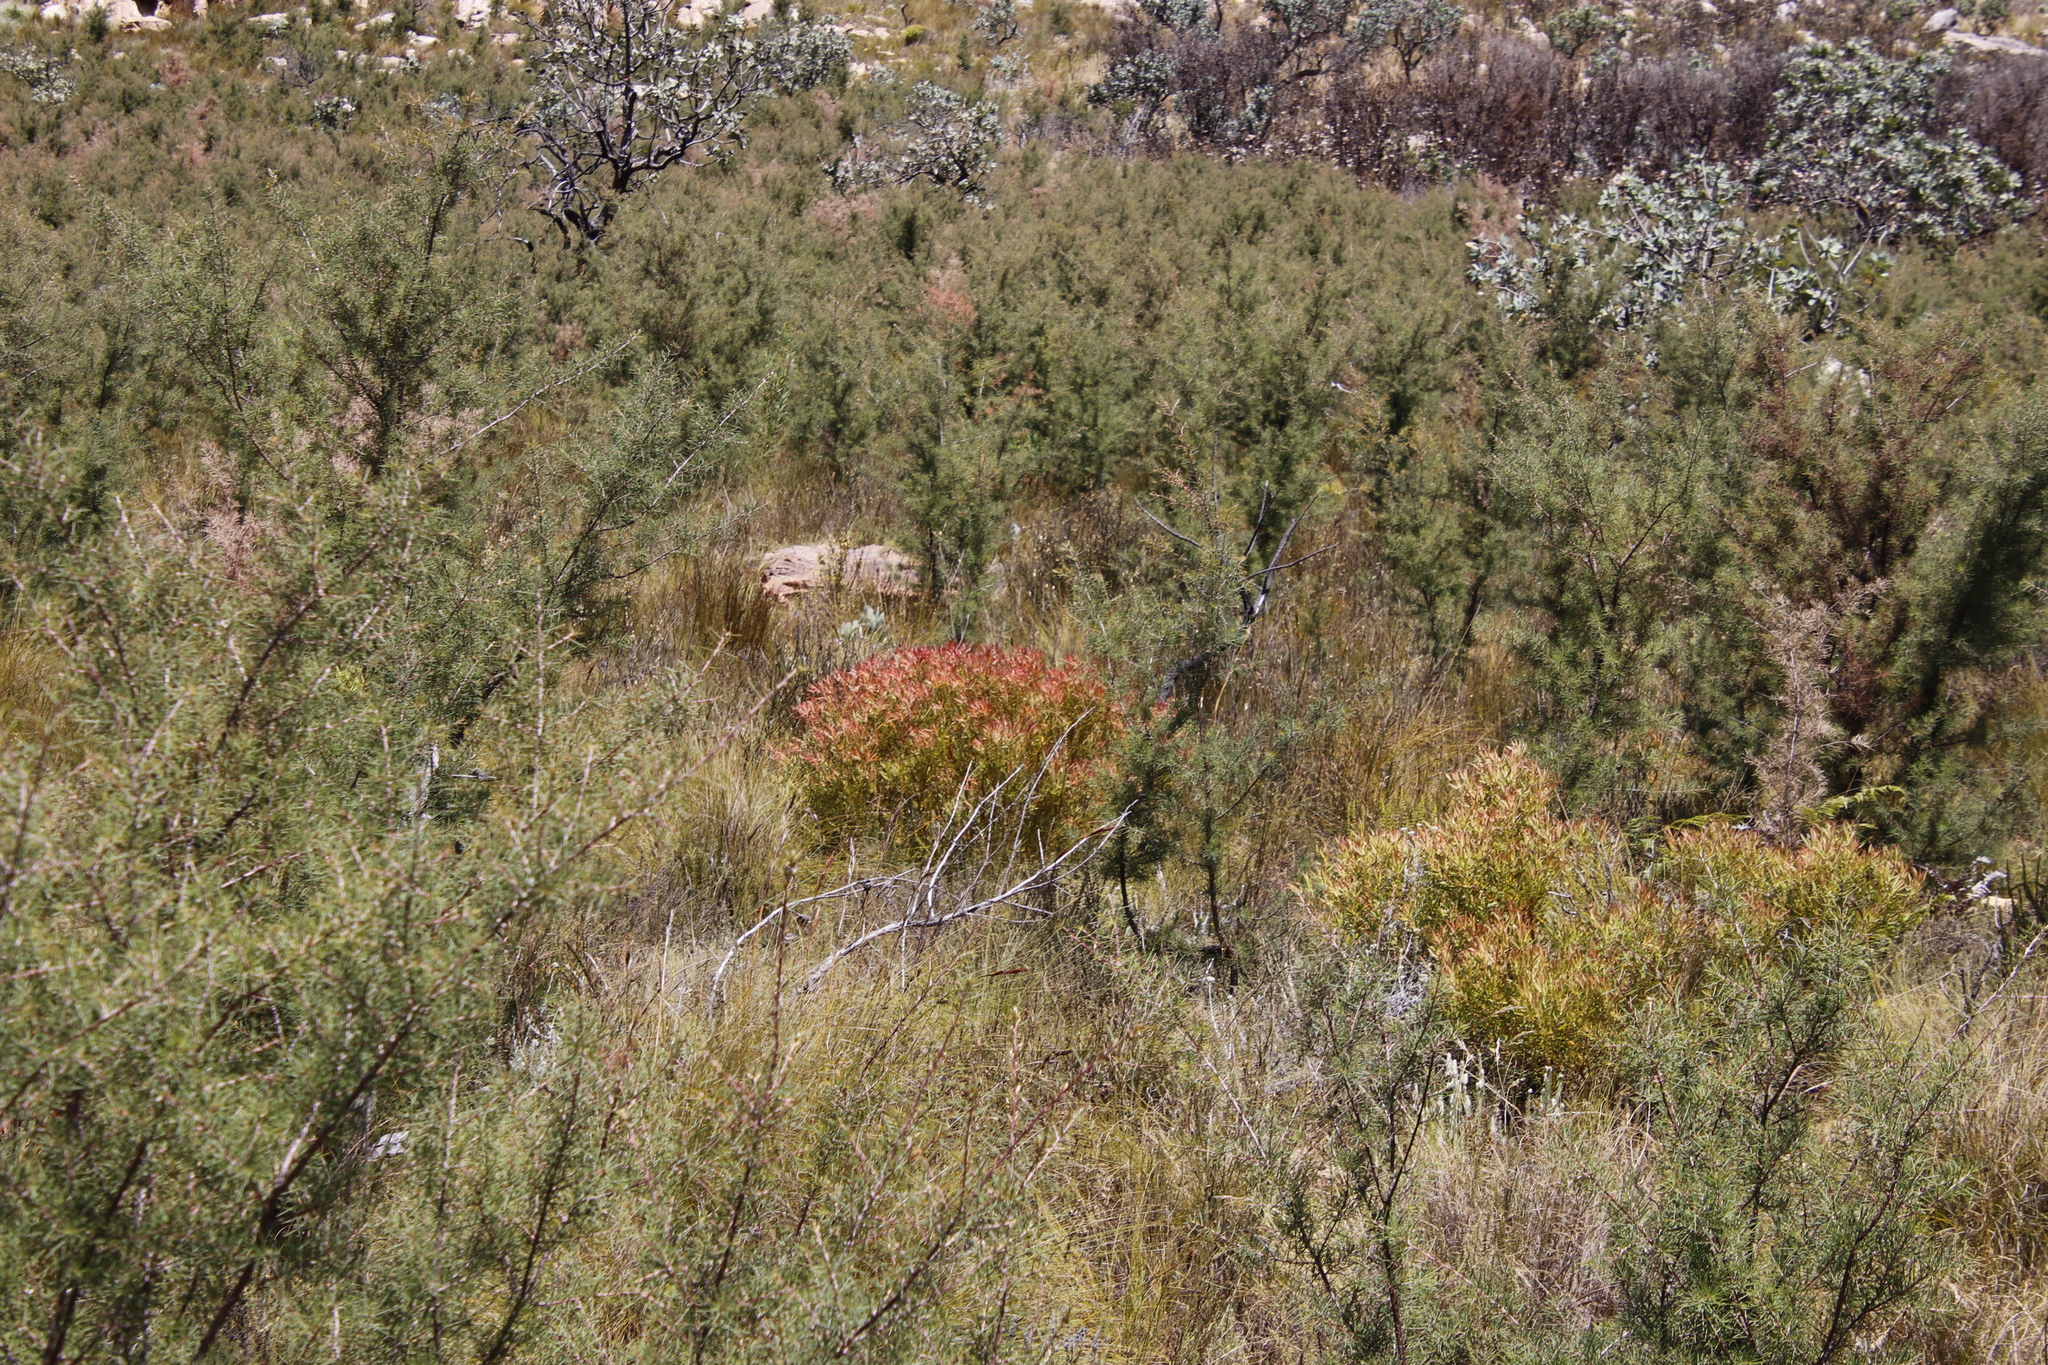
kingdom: Plantae
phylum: Tracheophyta
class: Magnoliopsida
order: Proteales
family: Proteaceae
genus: Hakea
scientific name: Hakea sericea
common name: Needle bush
